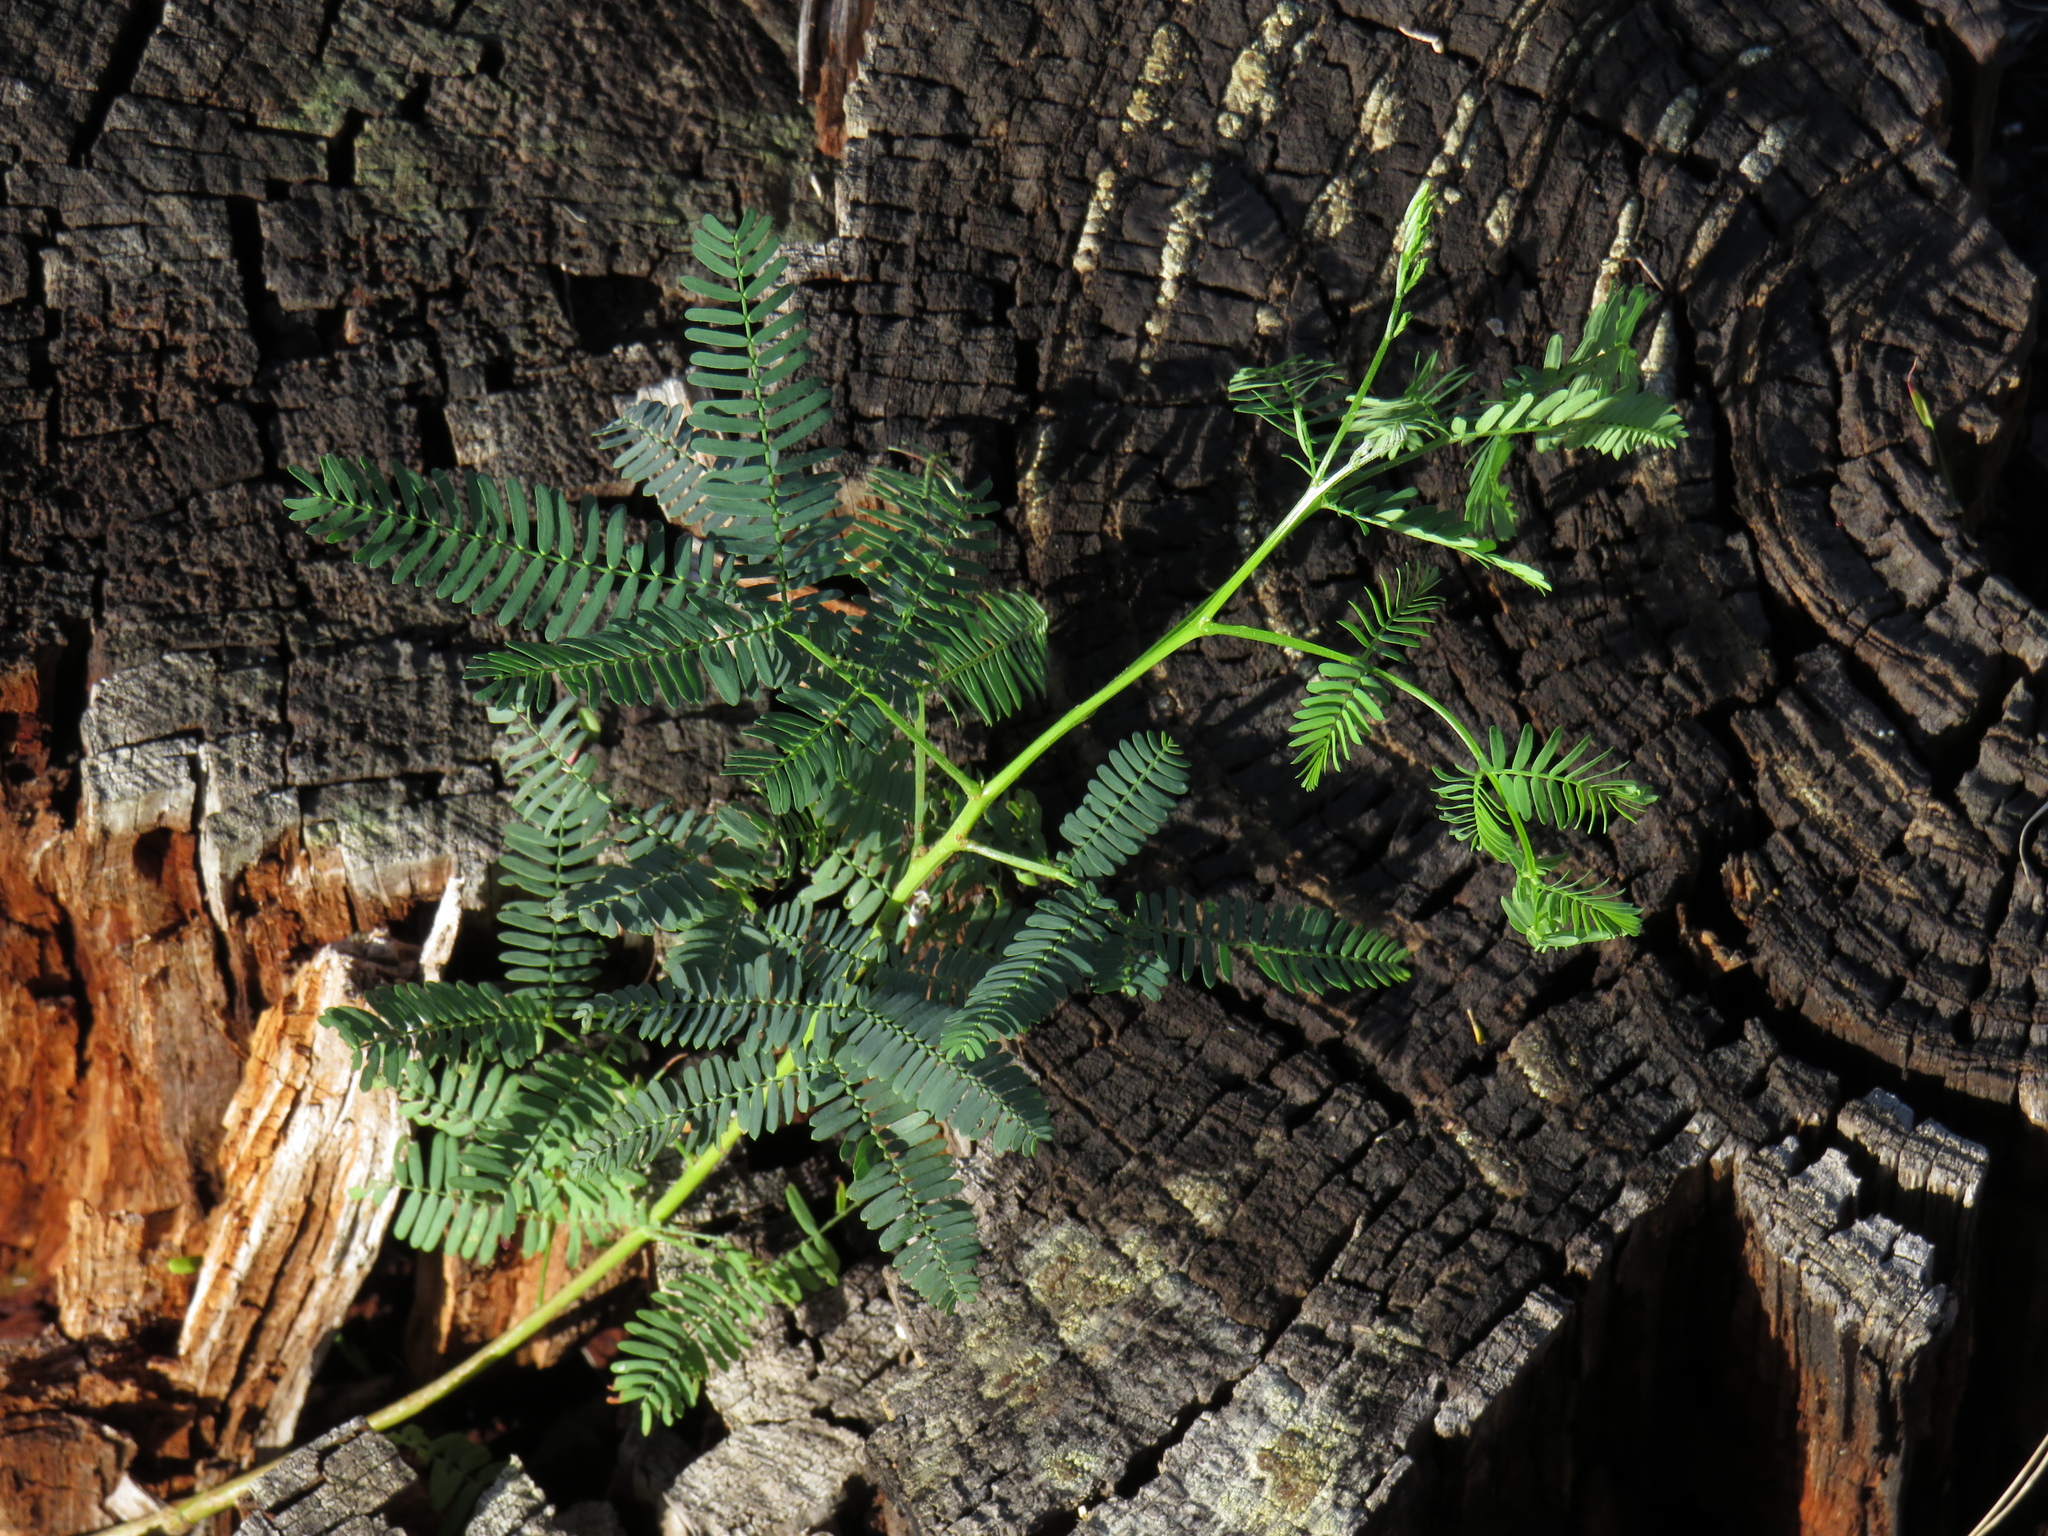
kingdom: Plantae
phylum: Tracheophyta
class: Magnoliopsida
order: Fabales
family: Fabaceae
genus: Acacia
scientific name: Acacia implexa
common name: Black wattle
